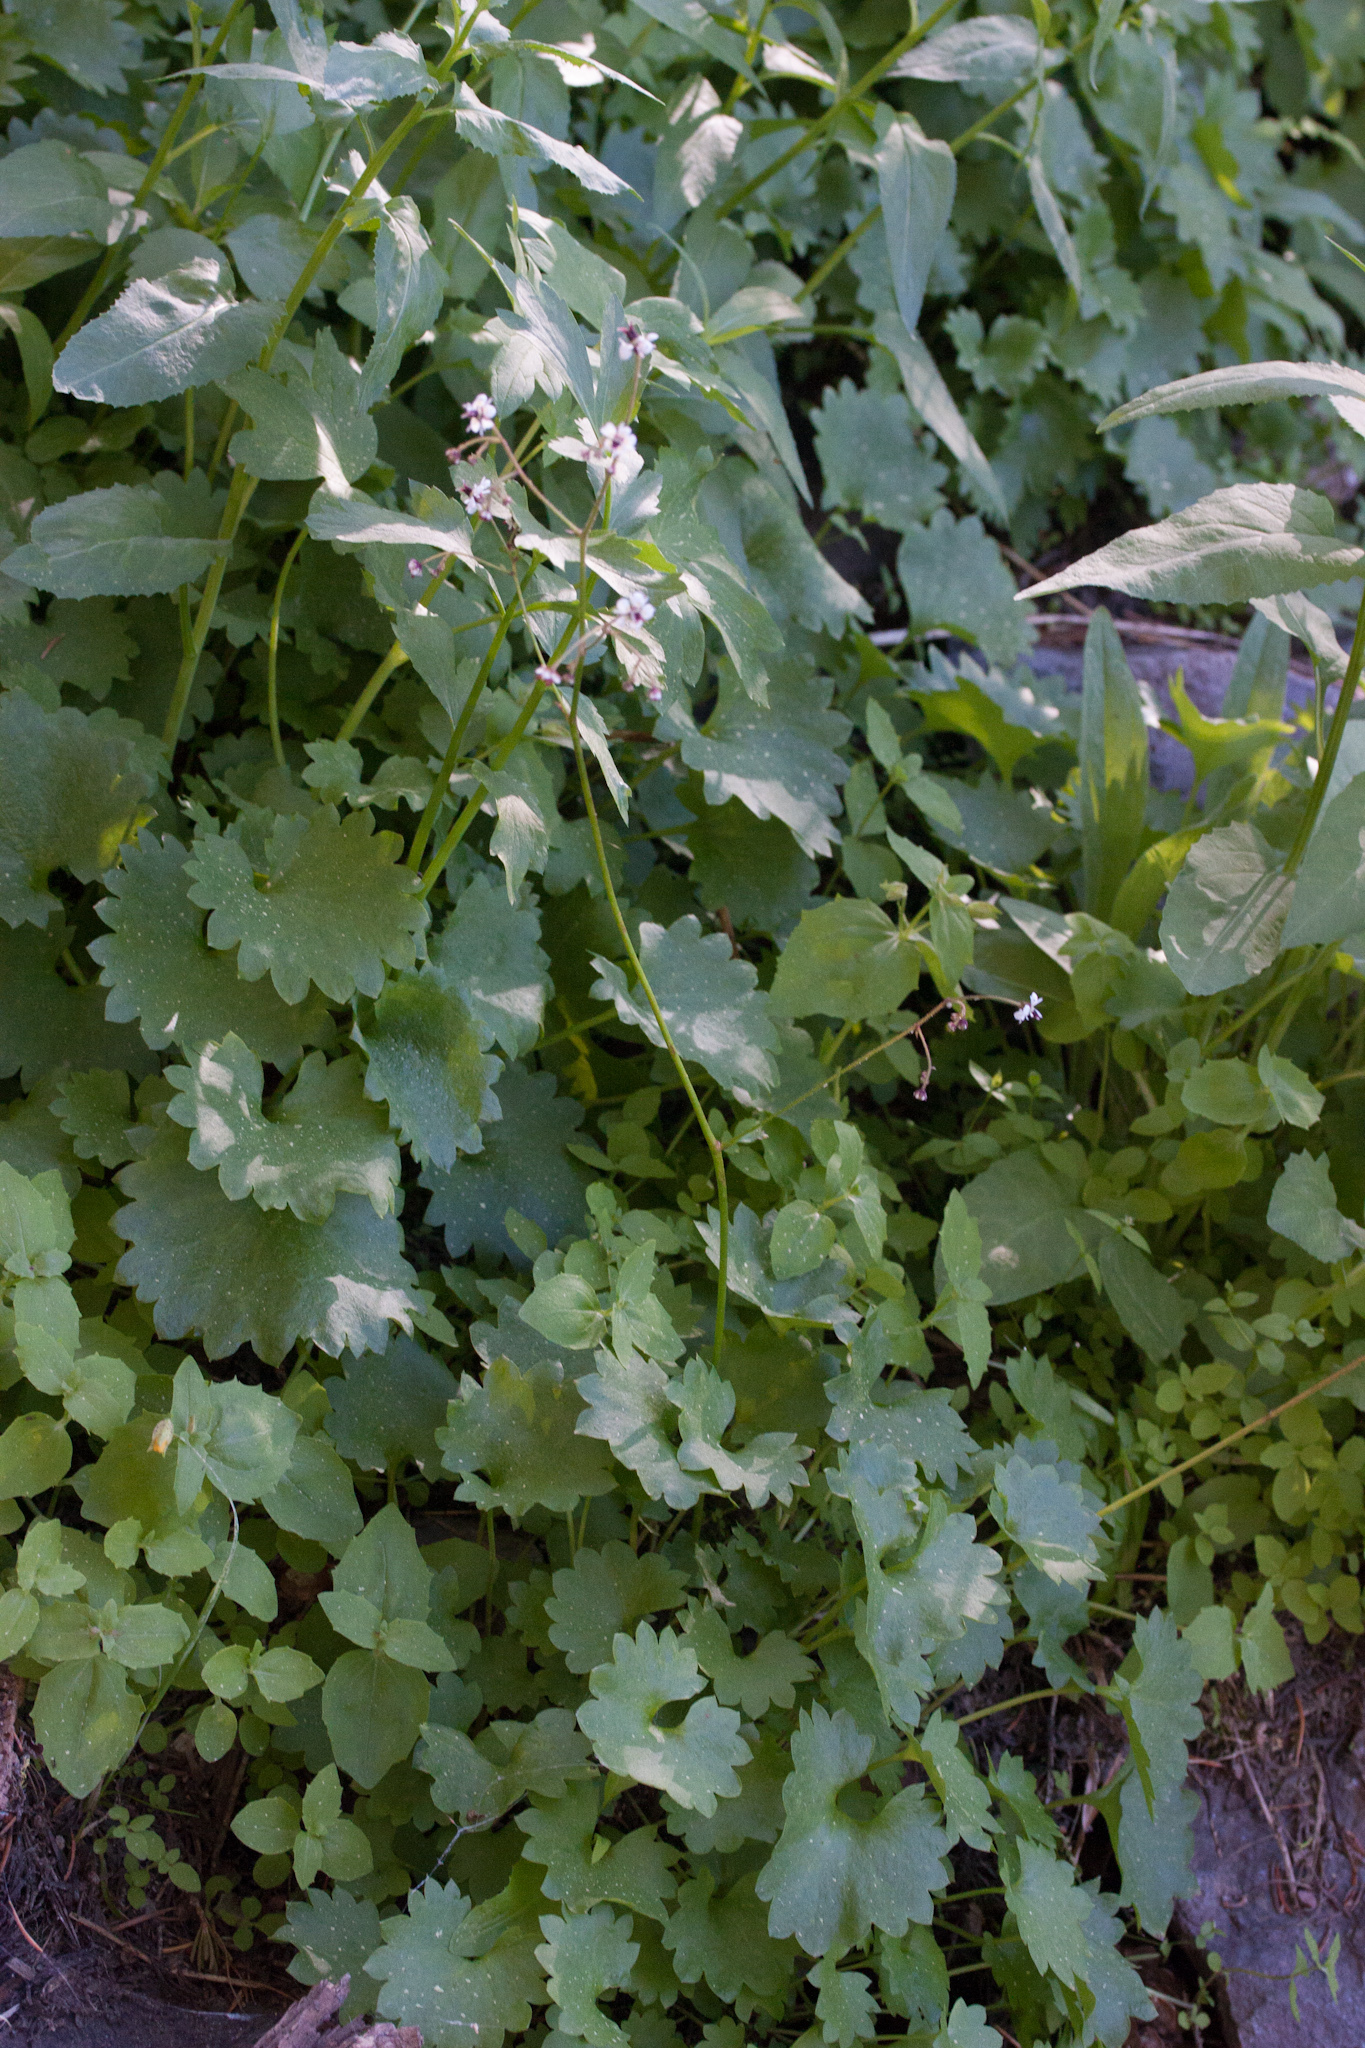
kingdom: Plantae
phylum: Tracheophyta
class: Magnoliopsida
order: Saxifragales
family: Saxifragaceae
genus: Micranthes
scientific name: Micranthes odontoloma
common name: Brook saxifrage
